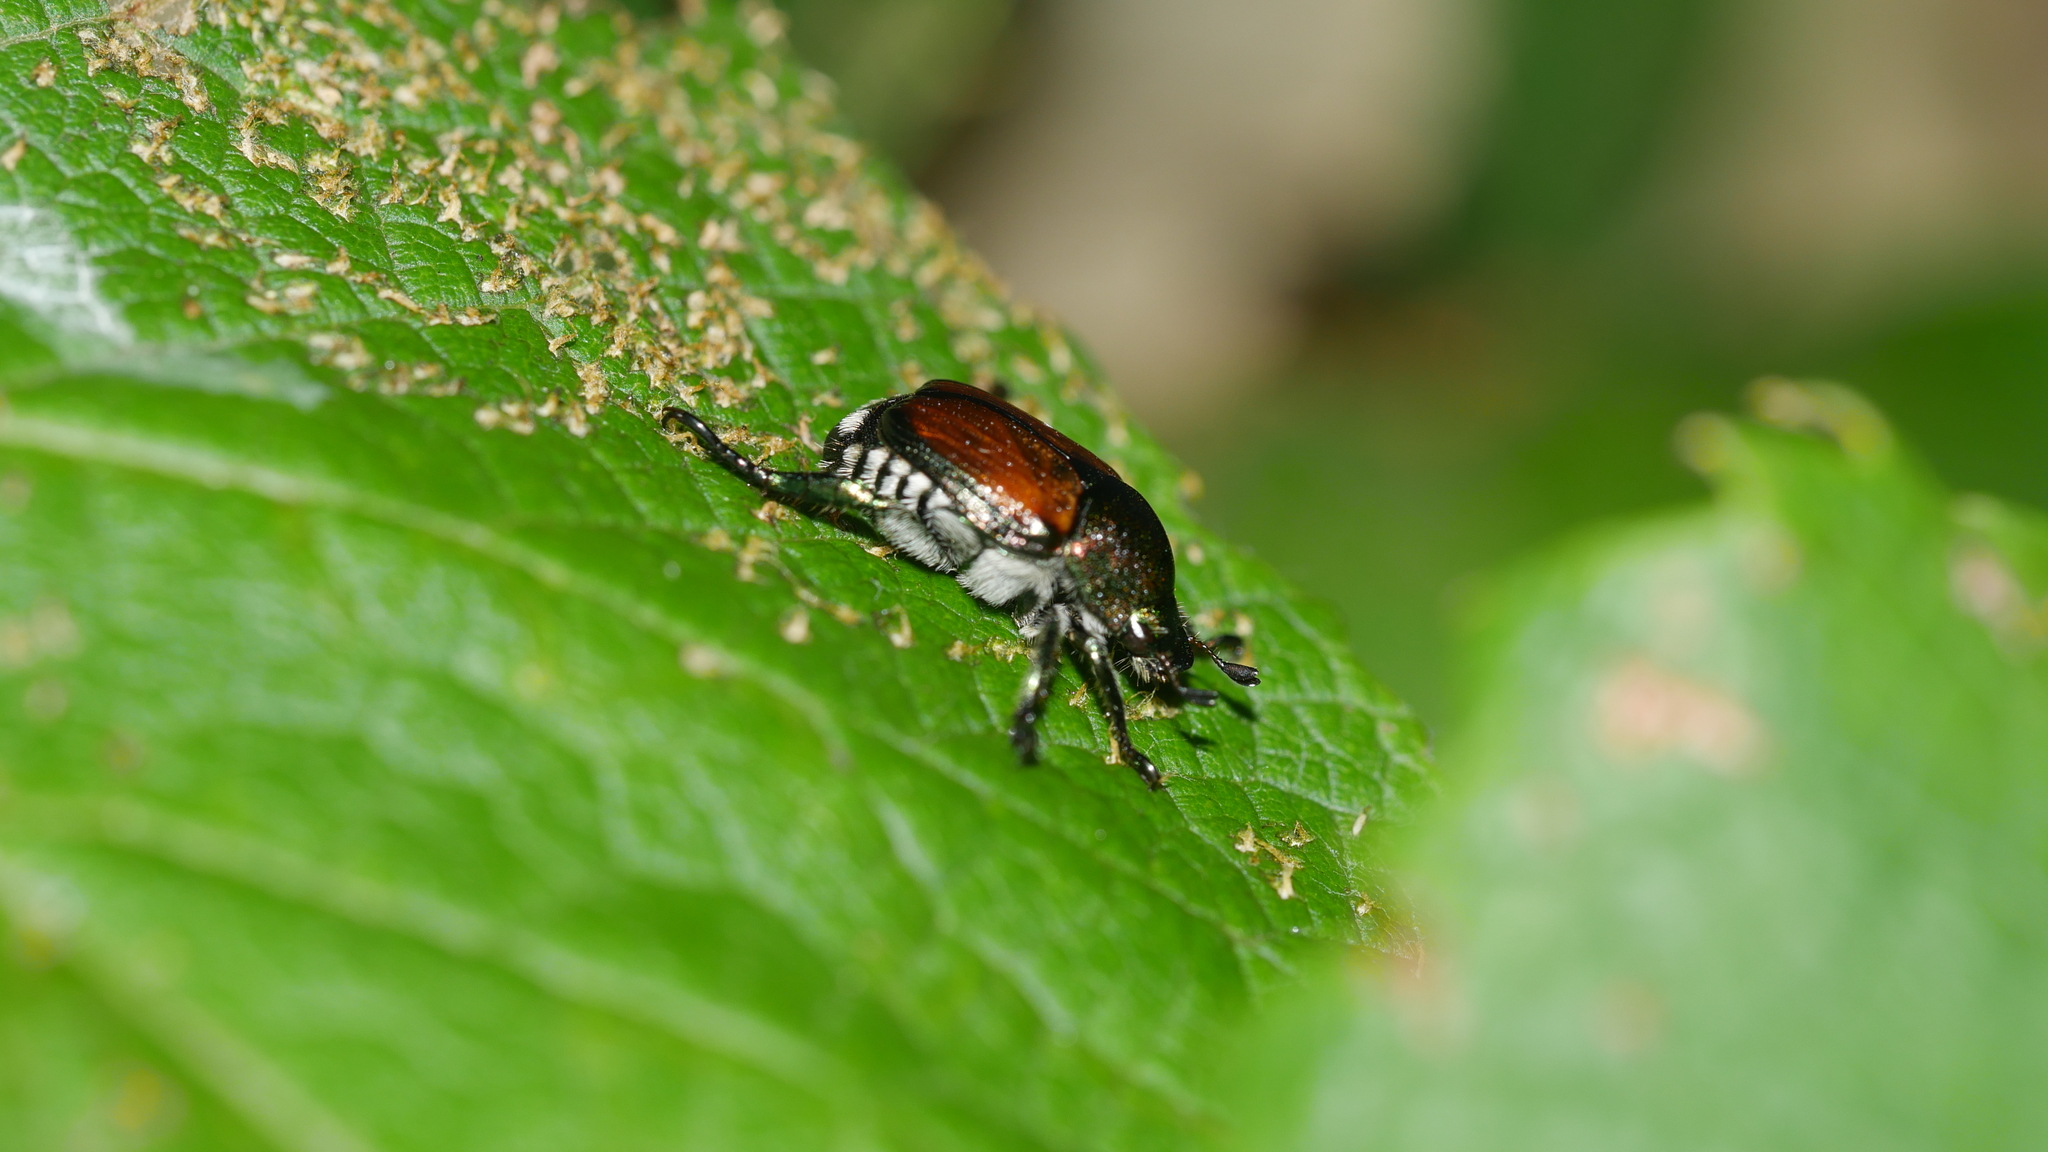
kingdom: Animalia
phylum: Arthropoda
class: Insecta
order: Coleoptera
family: Scarabaeidae
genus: Popillia
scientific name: Popillia japonica
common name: Japanese beetle
